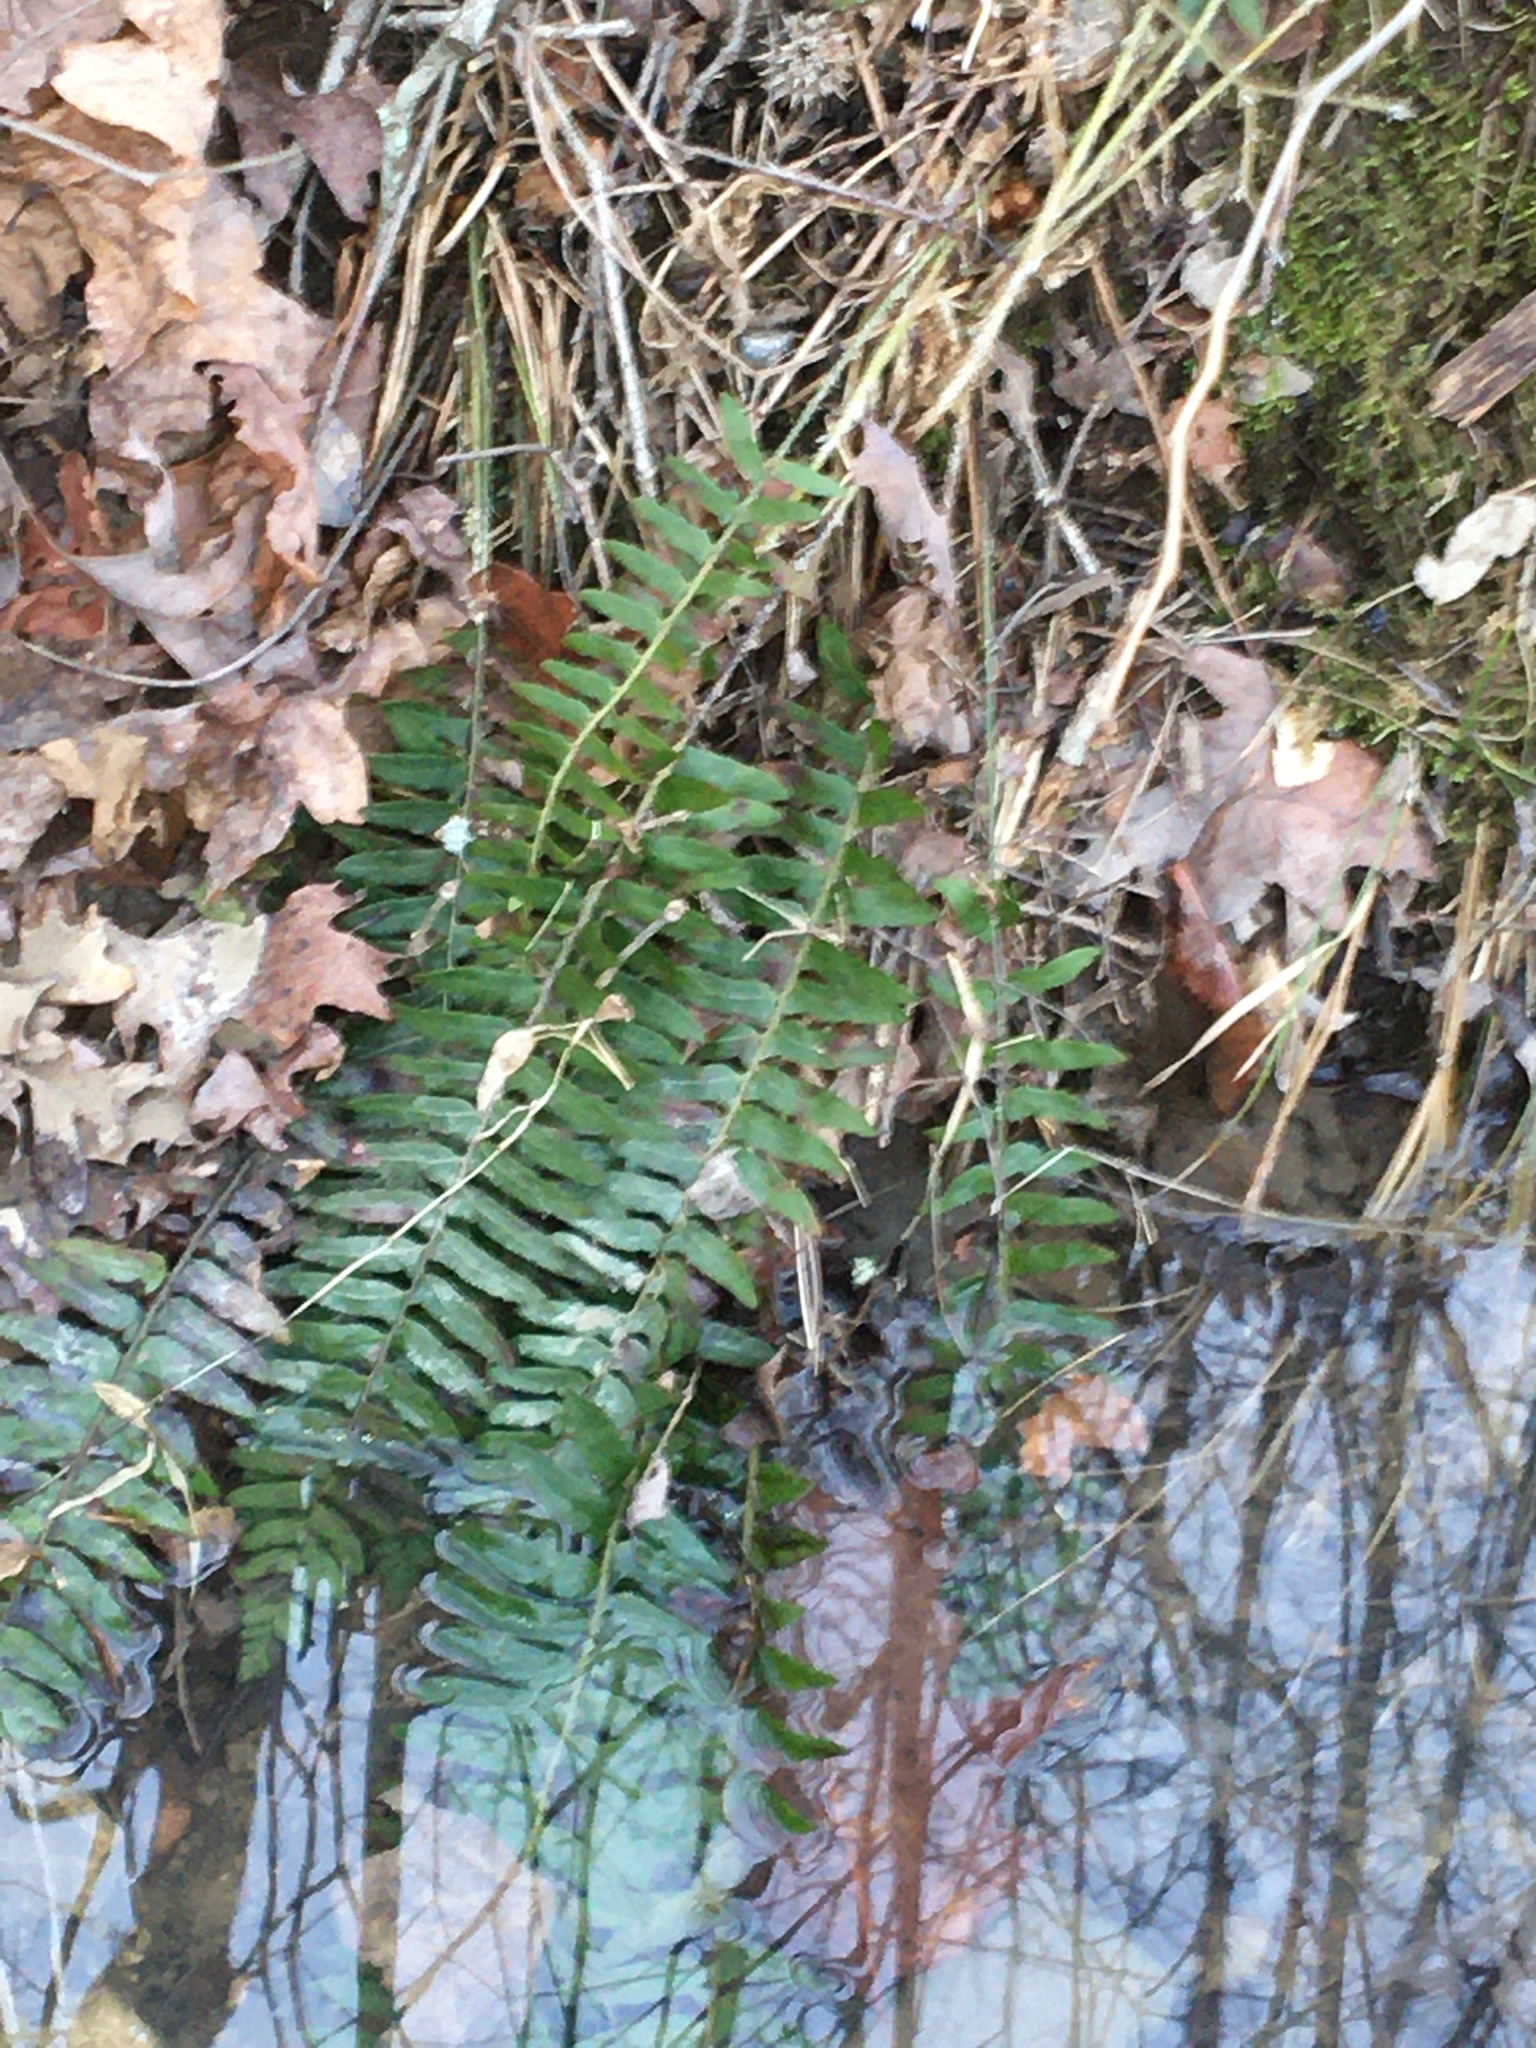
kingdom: Plantae
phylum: Tracheophyta
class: Polypodiopsida
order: Polypodiales
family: Dryopteridaceae
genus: Polystichum
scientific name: Polystichum acrostichoides
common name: Christmas fern
